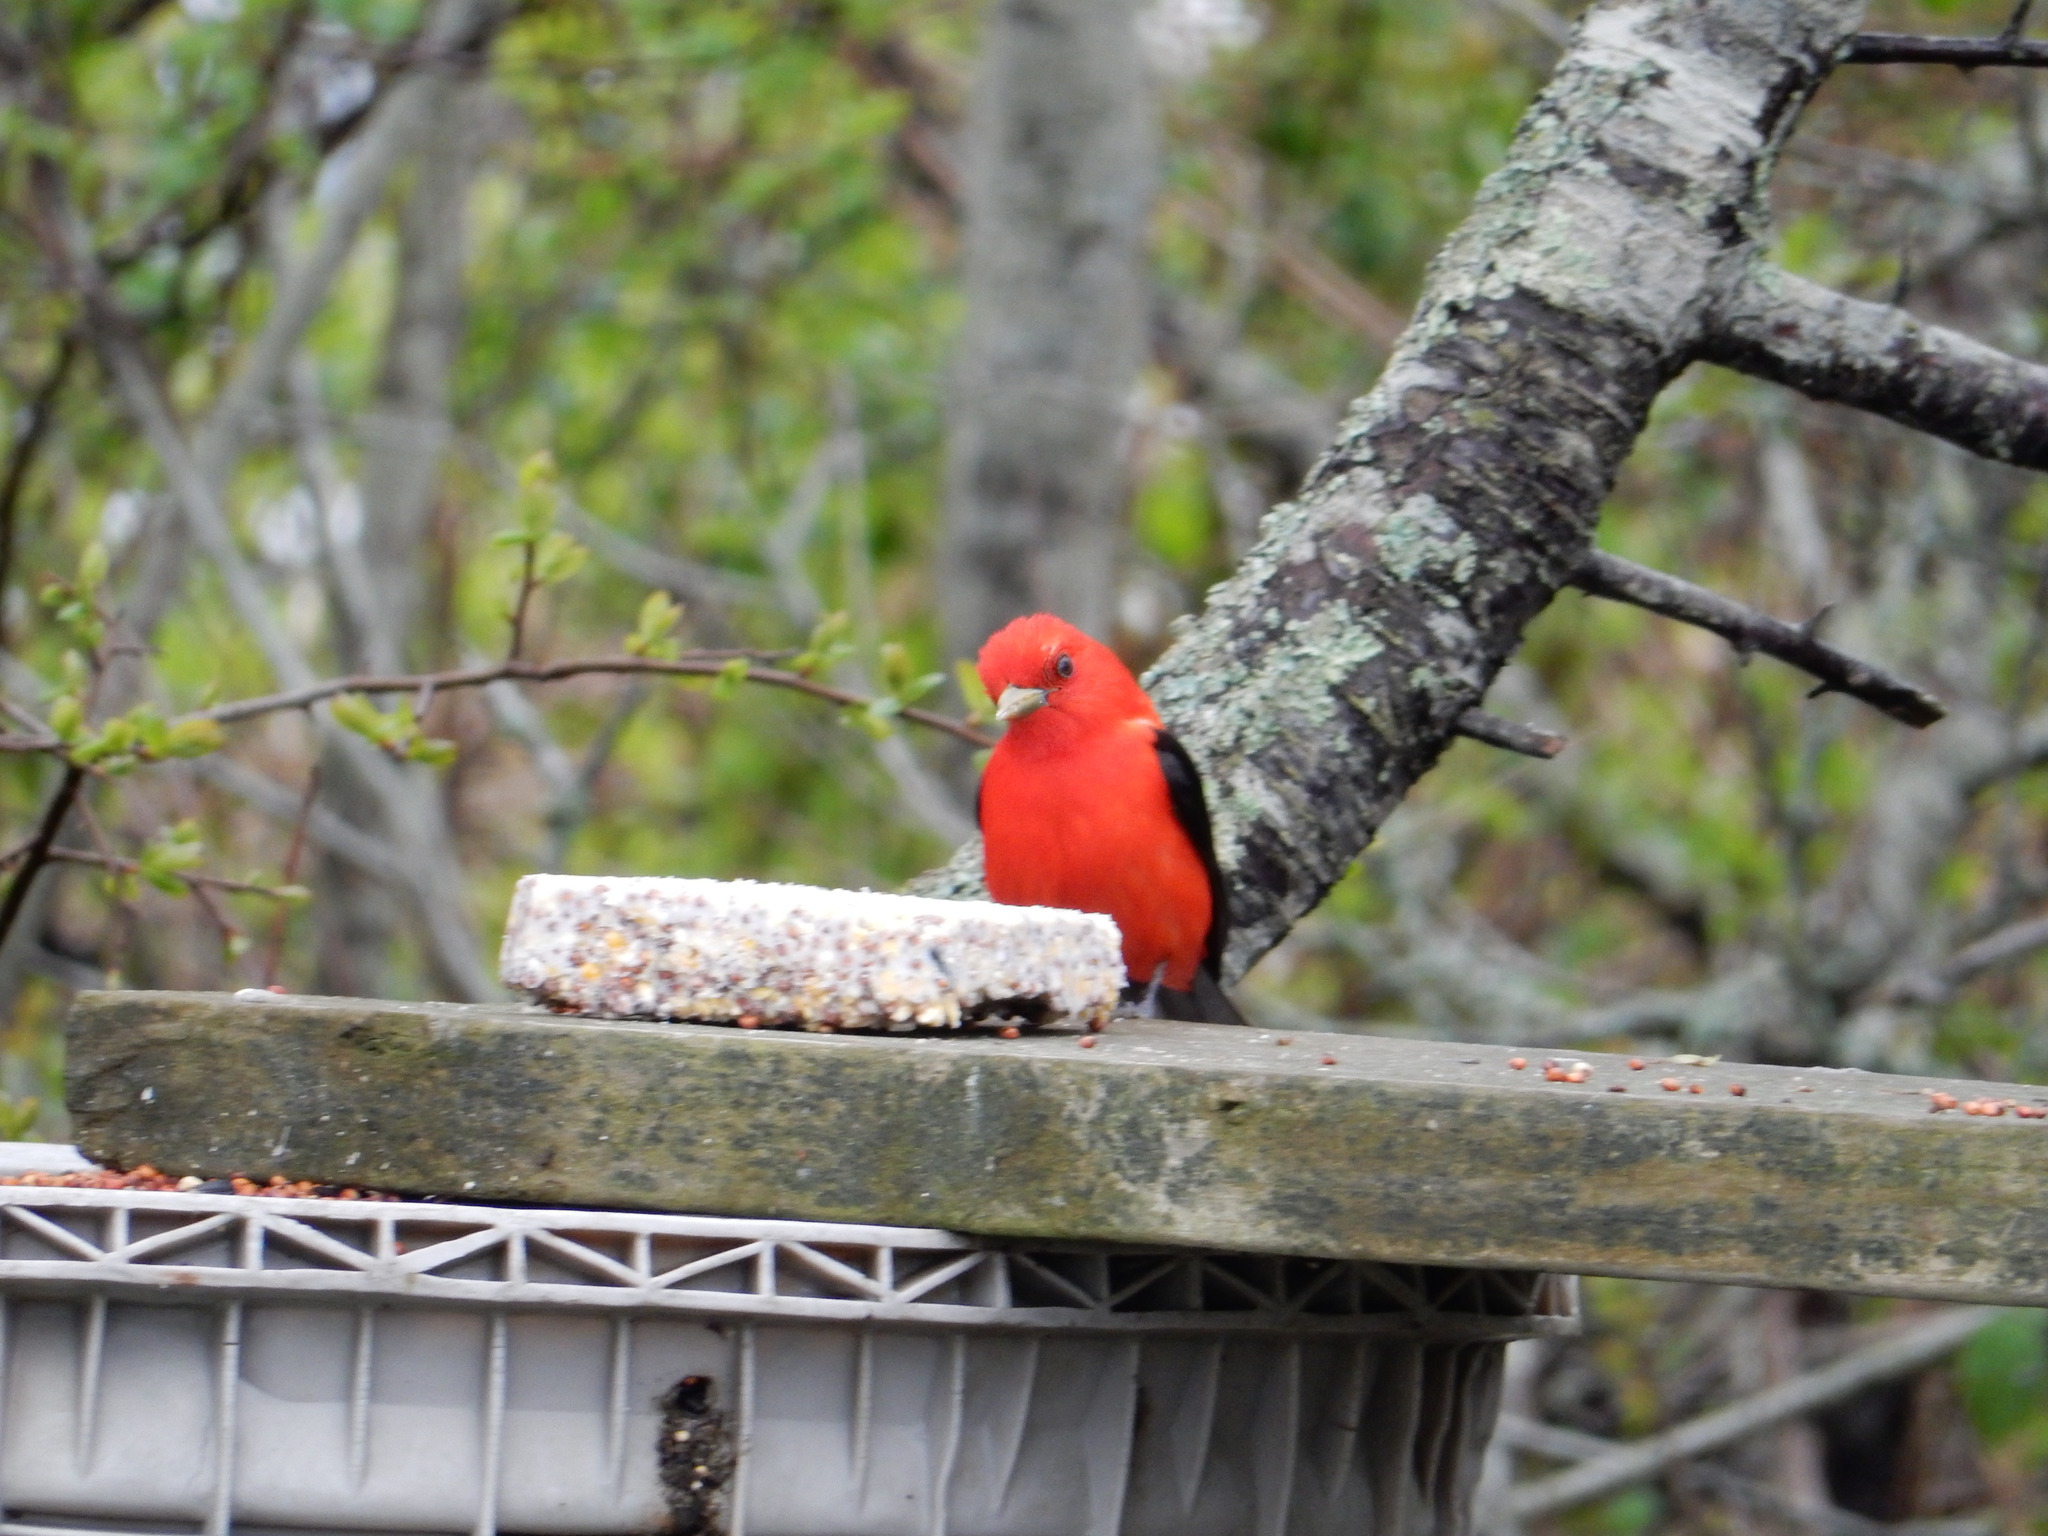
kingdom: Animalia
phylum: Chordata
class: Aves
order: Passeriformes
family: Cardinalidae
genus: Piranga
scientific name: Piranga olivacea
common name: Scarlet tanager
